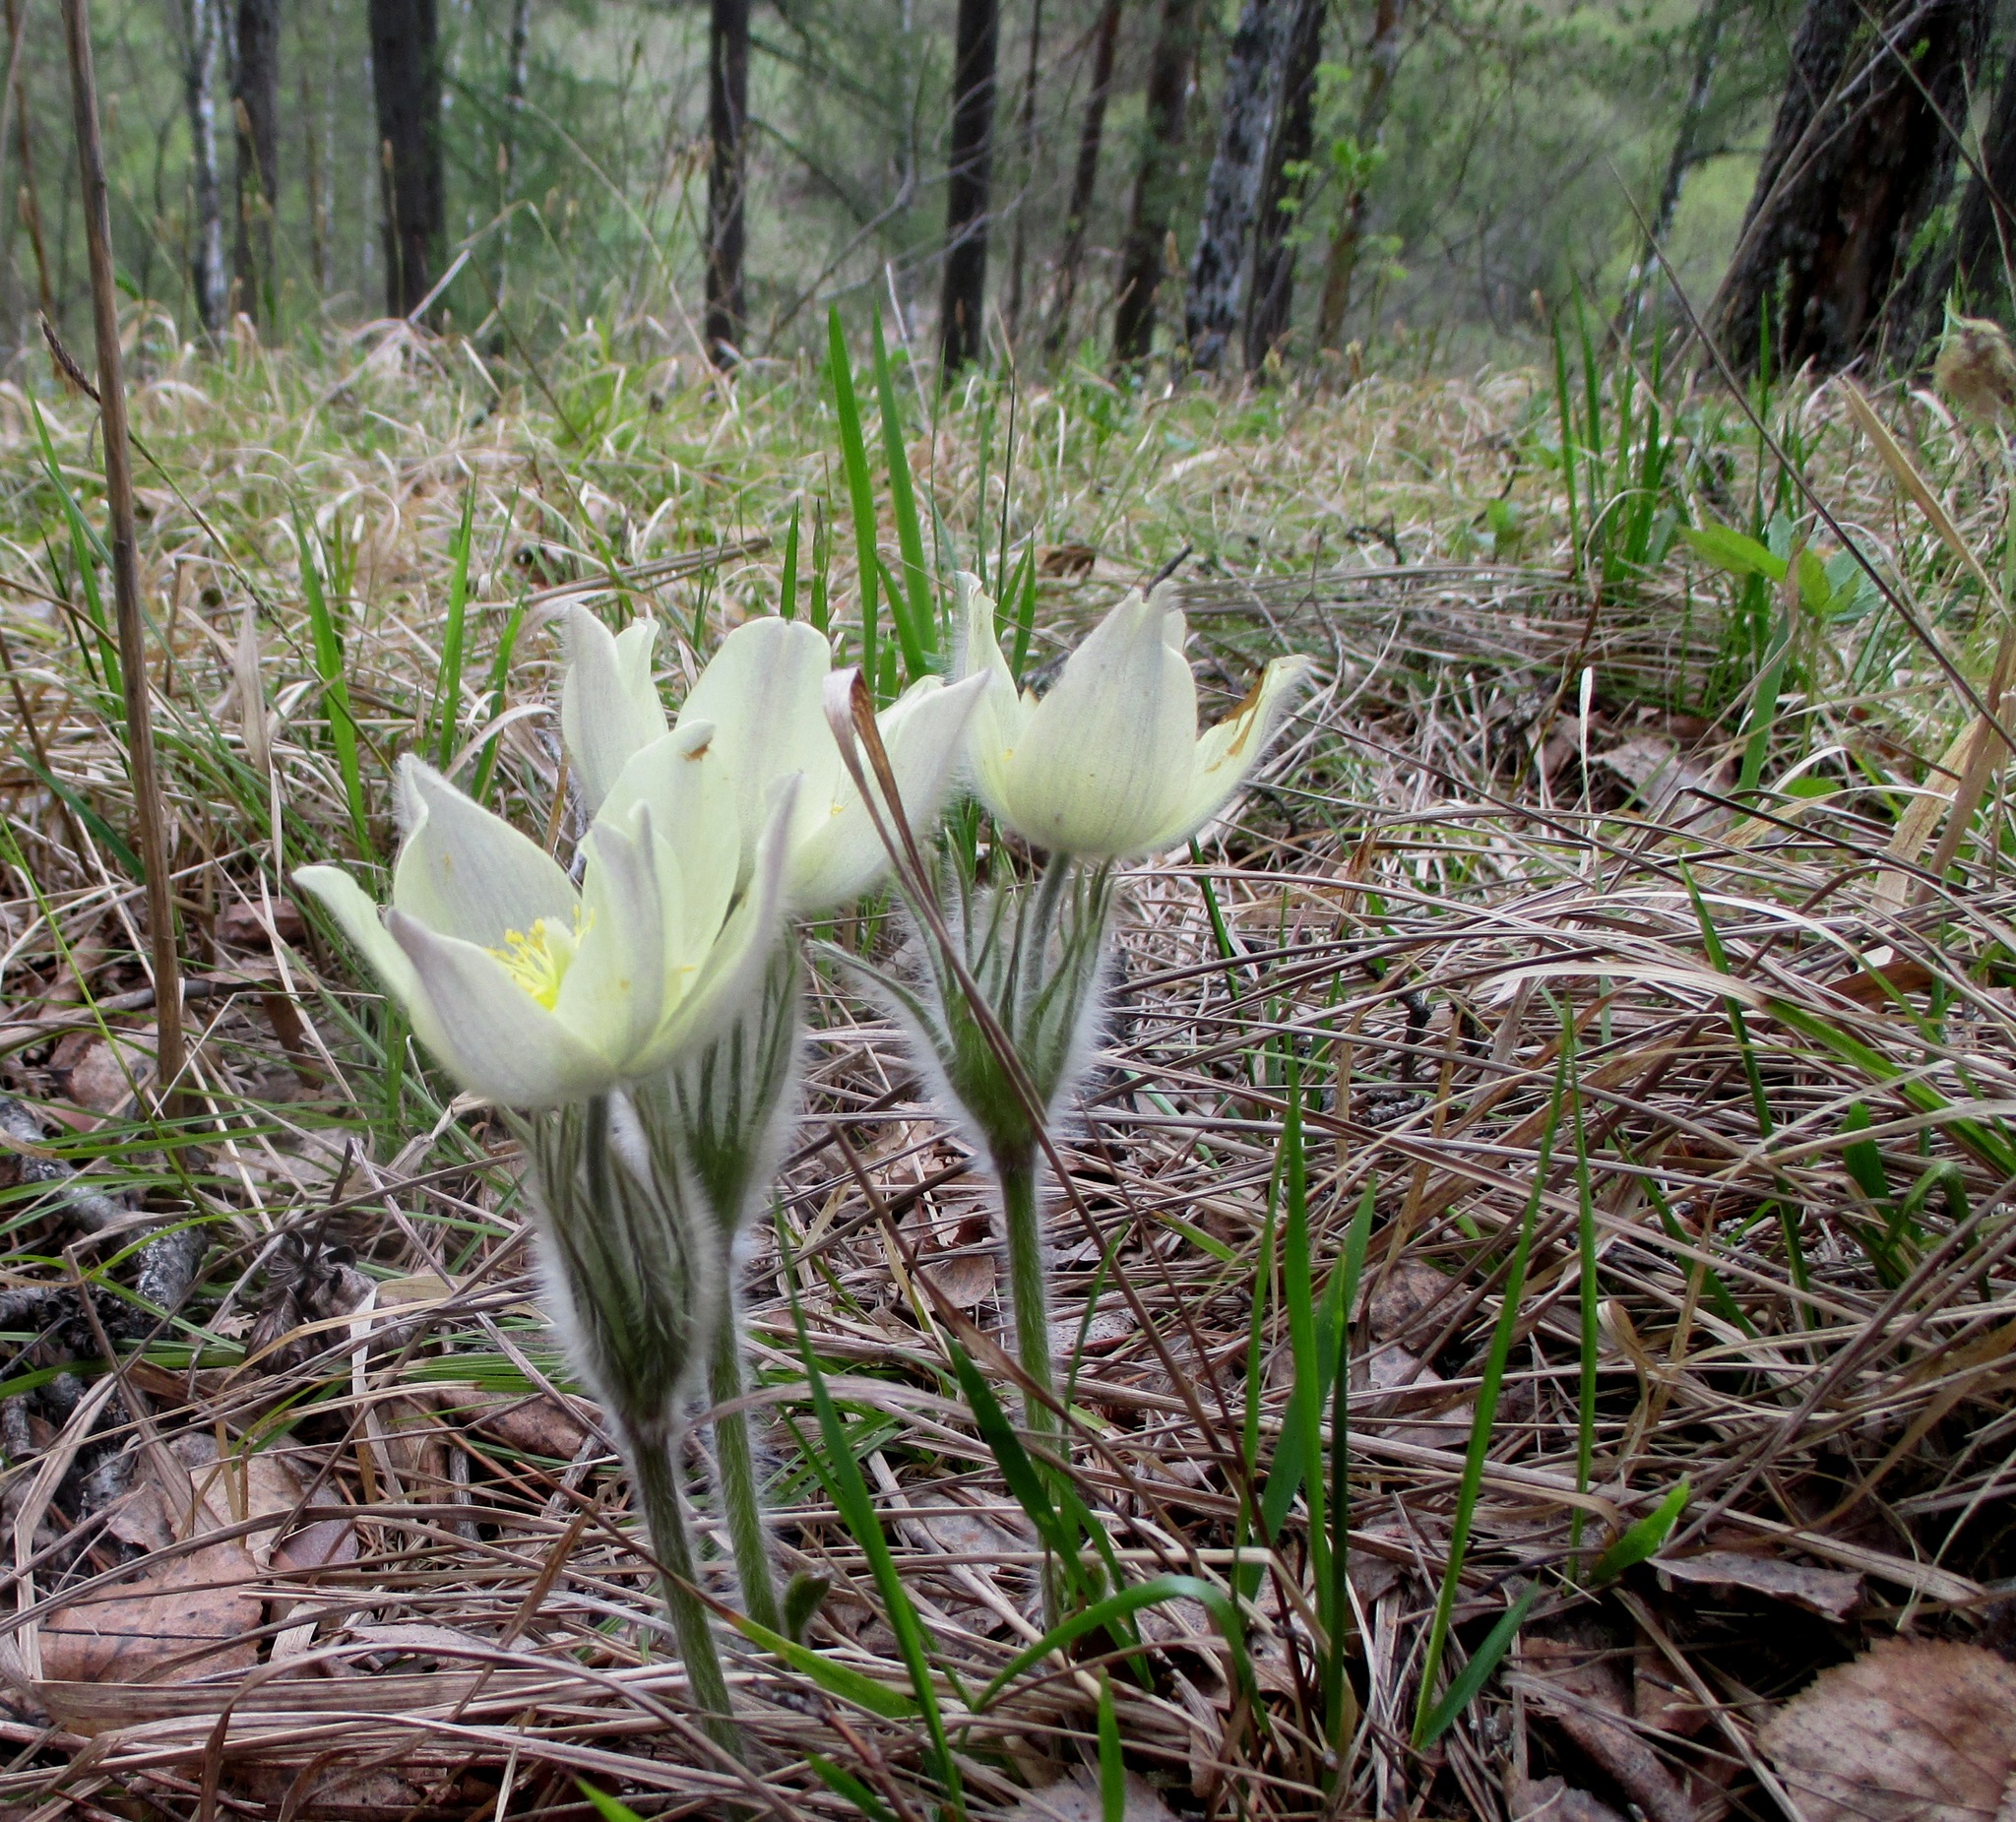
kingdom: Plantae
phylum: Tracheophyta
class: Magnoliopsida
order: Ranunculales
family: Ranunculaceae
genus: Pulsatilla
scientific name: Pulsatilla patens
